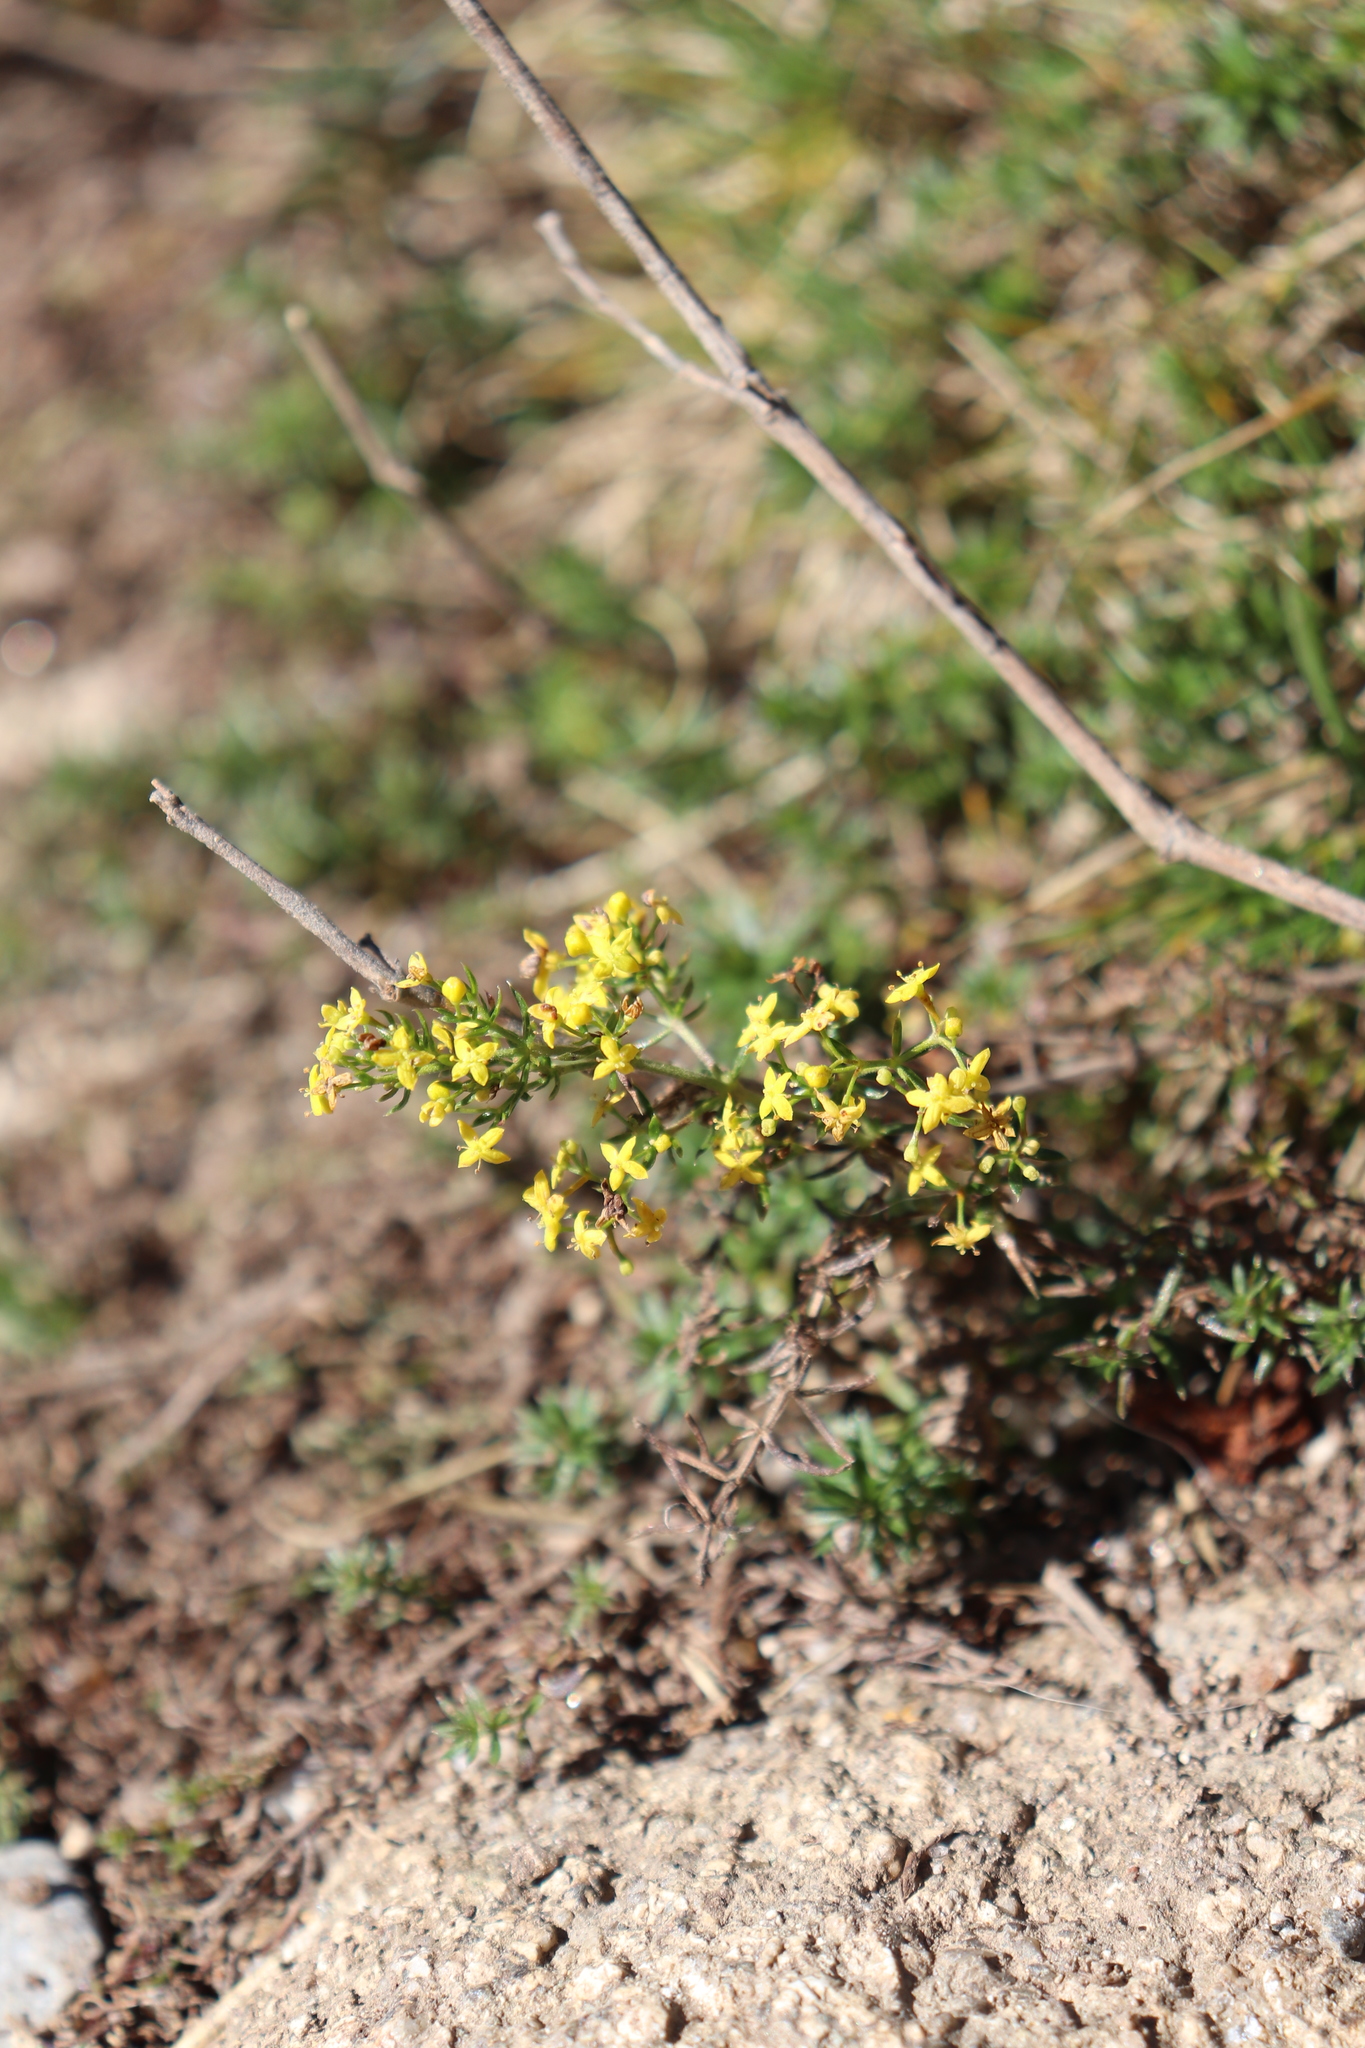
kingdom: Plantae
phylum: Tracheophyta
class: Magnoliopsida
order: Gentianales
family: Rubiaceae
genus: Galium
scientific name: Galium verum
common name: Lady's bedstraw
